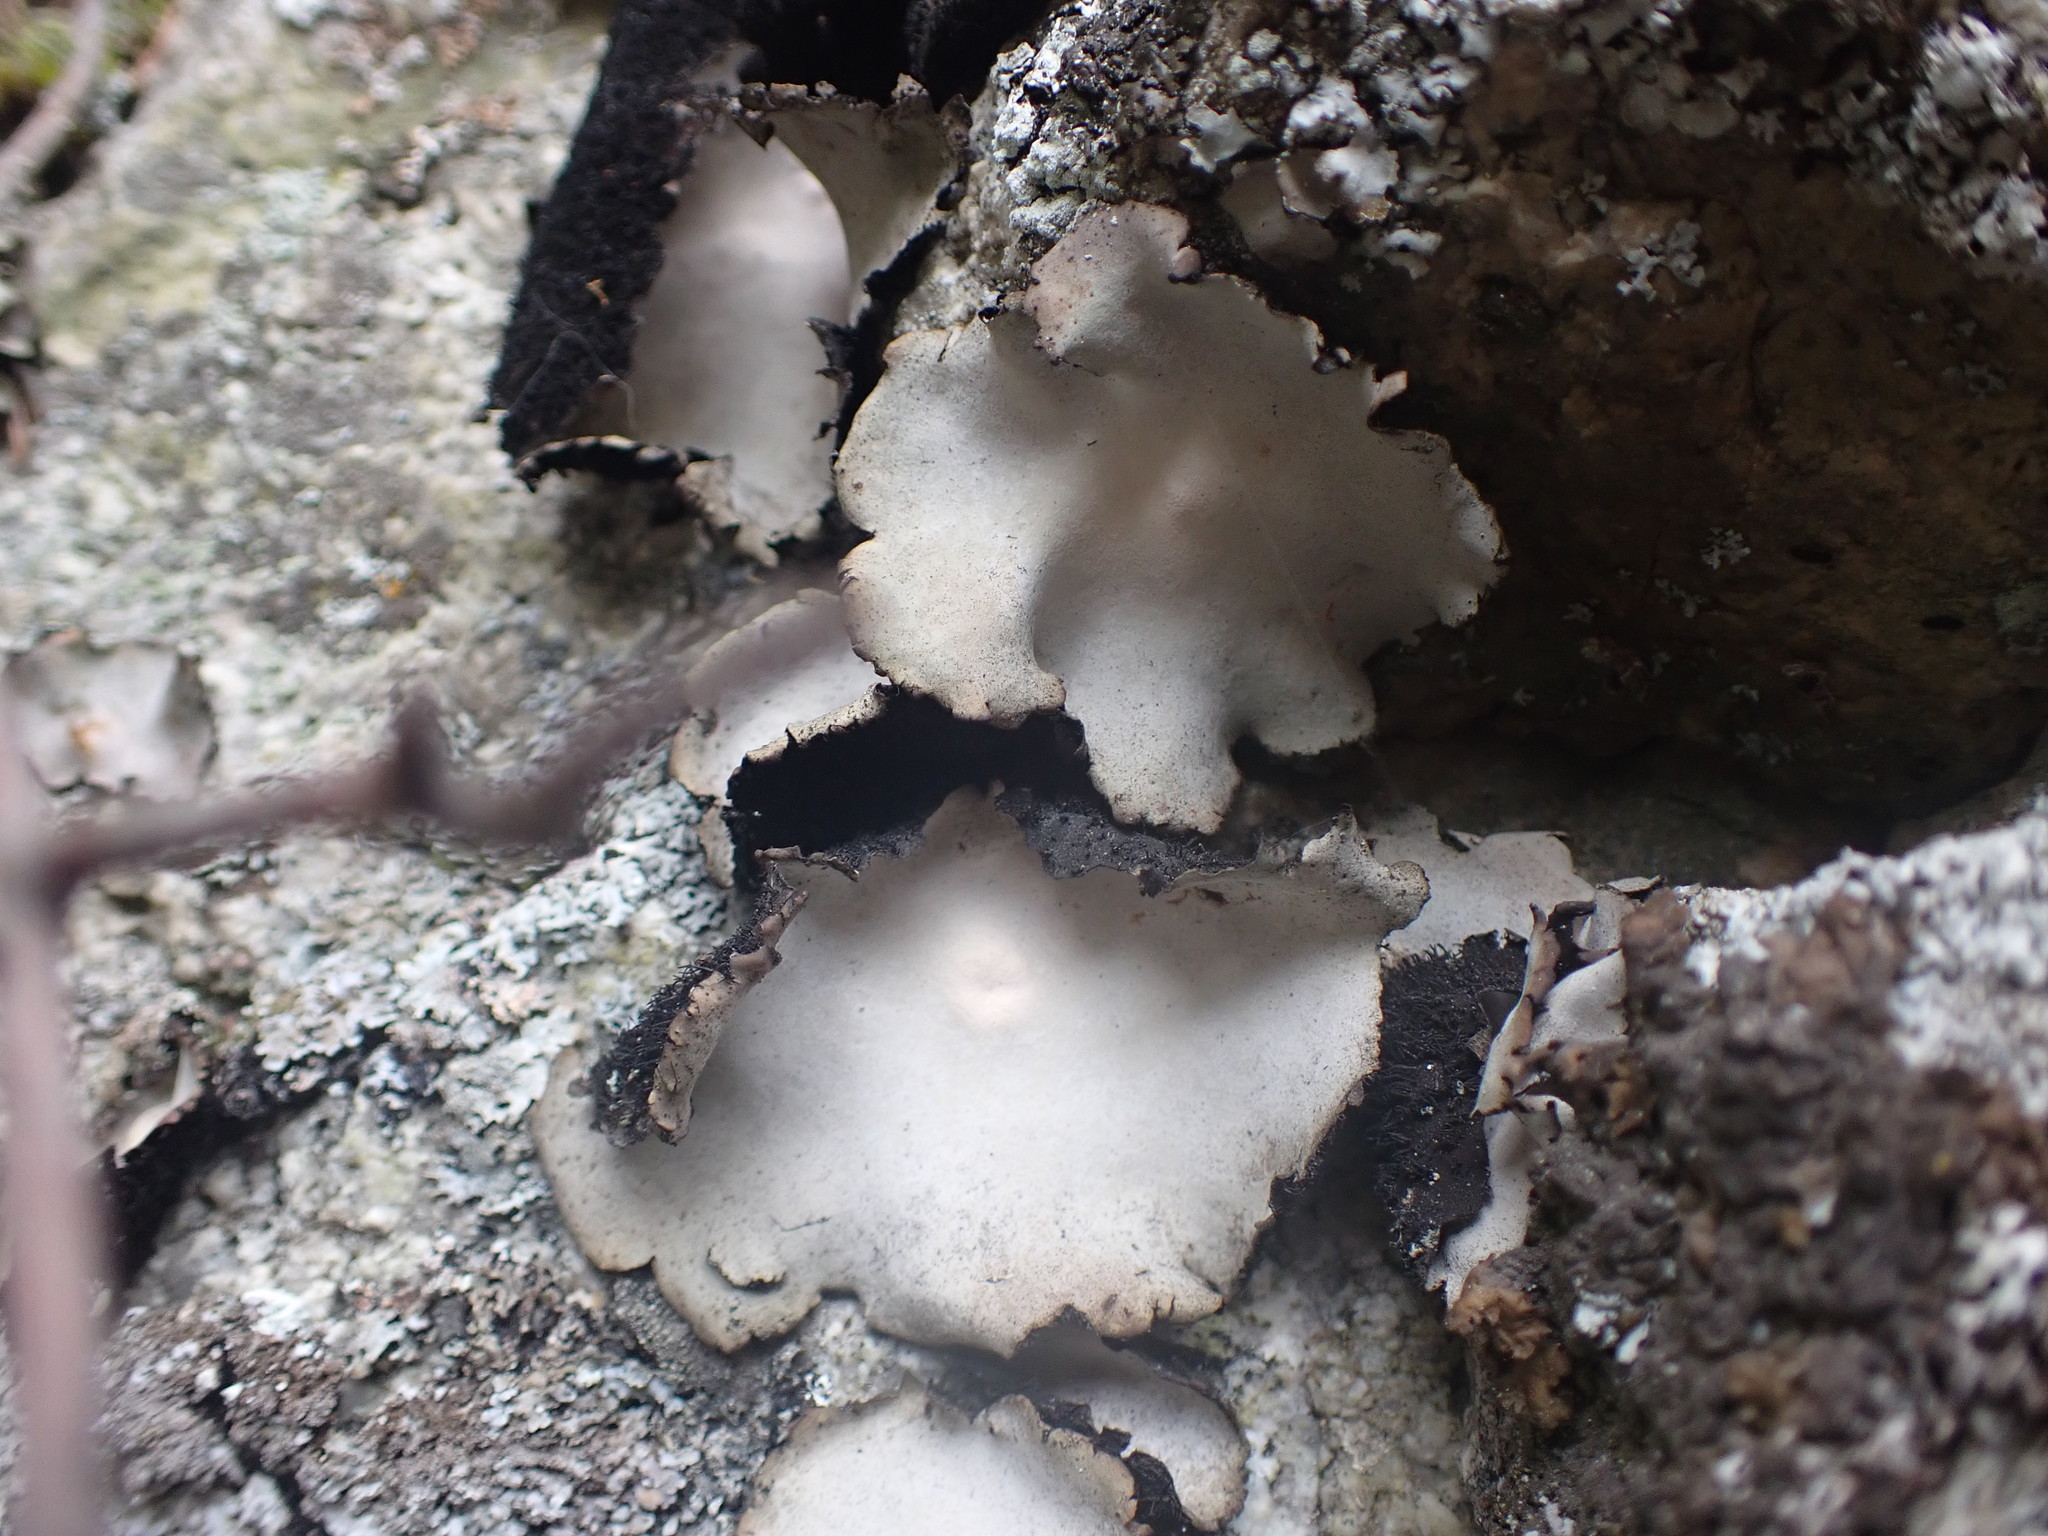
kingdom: Fungi
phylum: Ascomycota
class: Lecanoromycetes
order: Umbilicariales
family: Umbilicariaceae
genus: Umbilicaria
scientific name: Umbilicaria americana
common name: Frosted rock tripe
